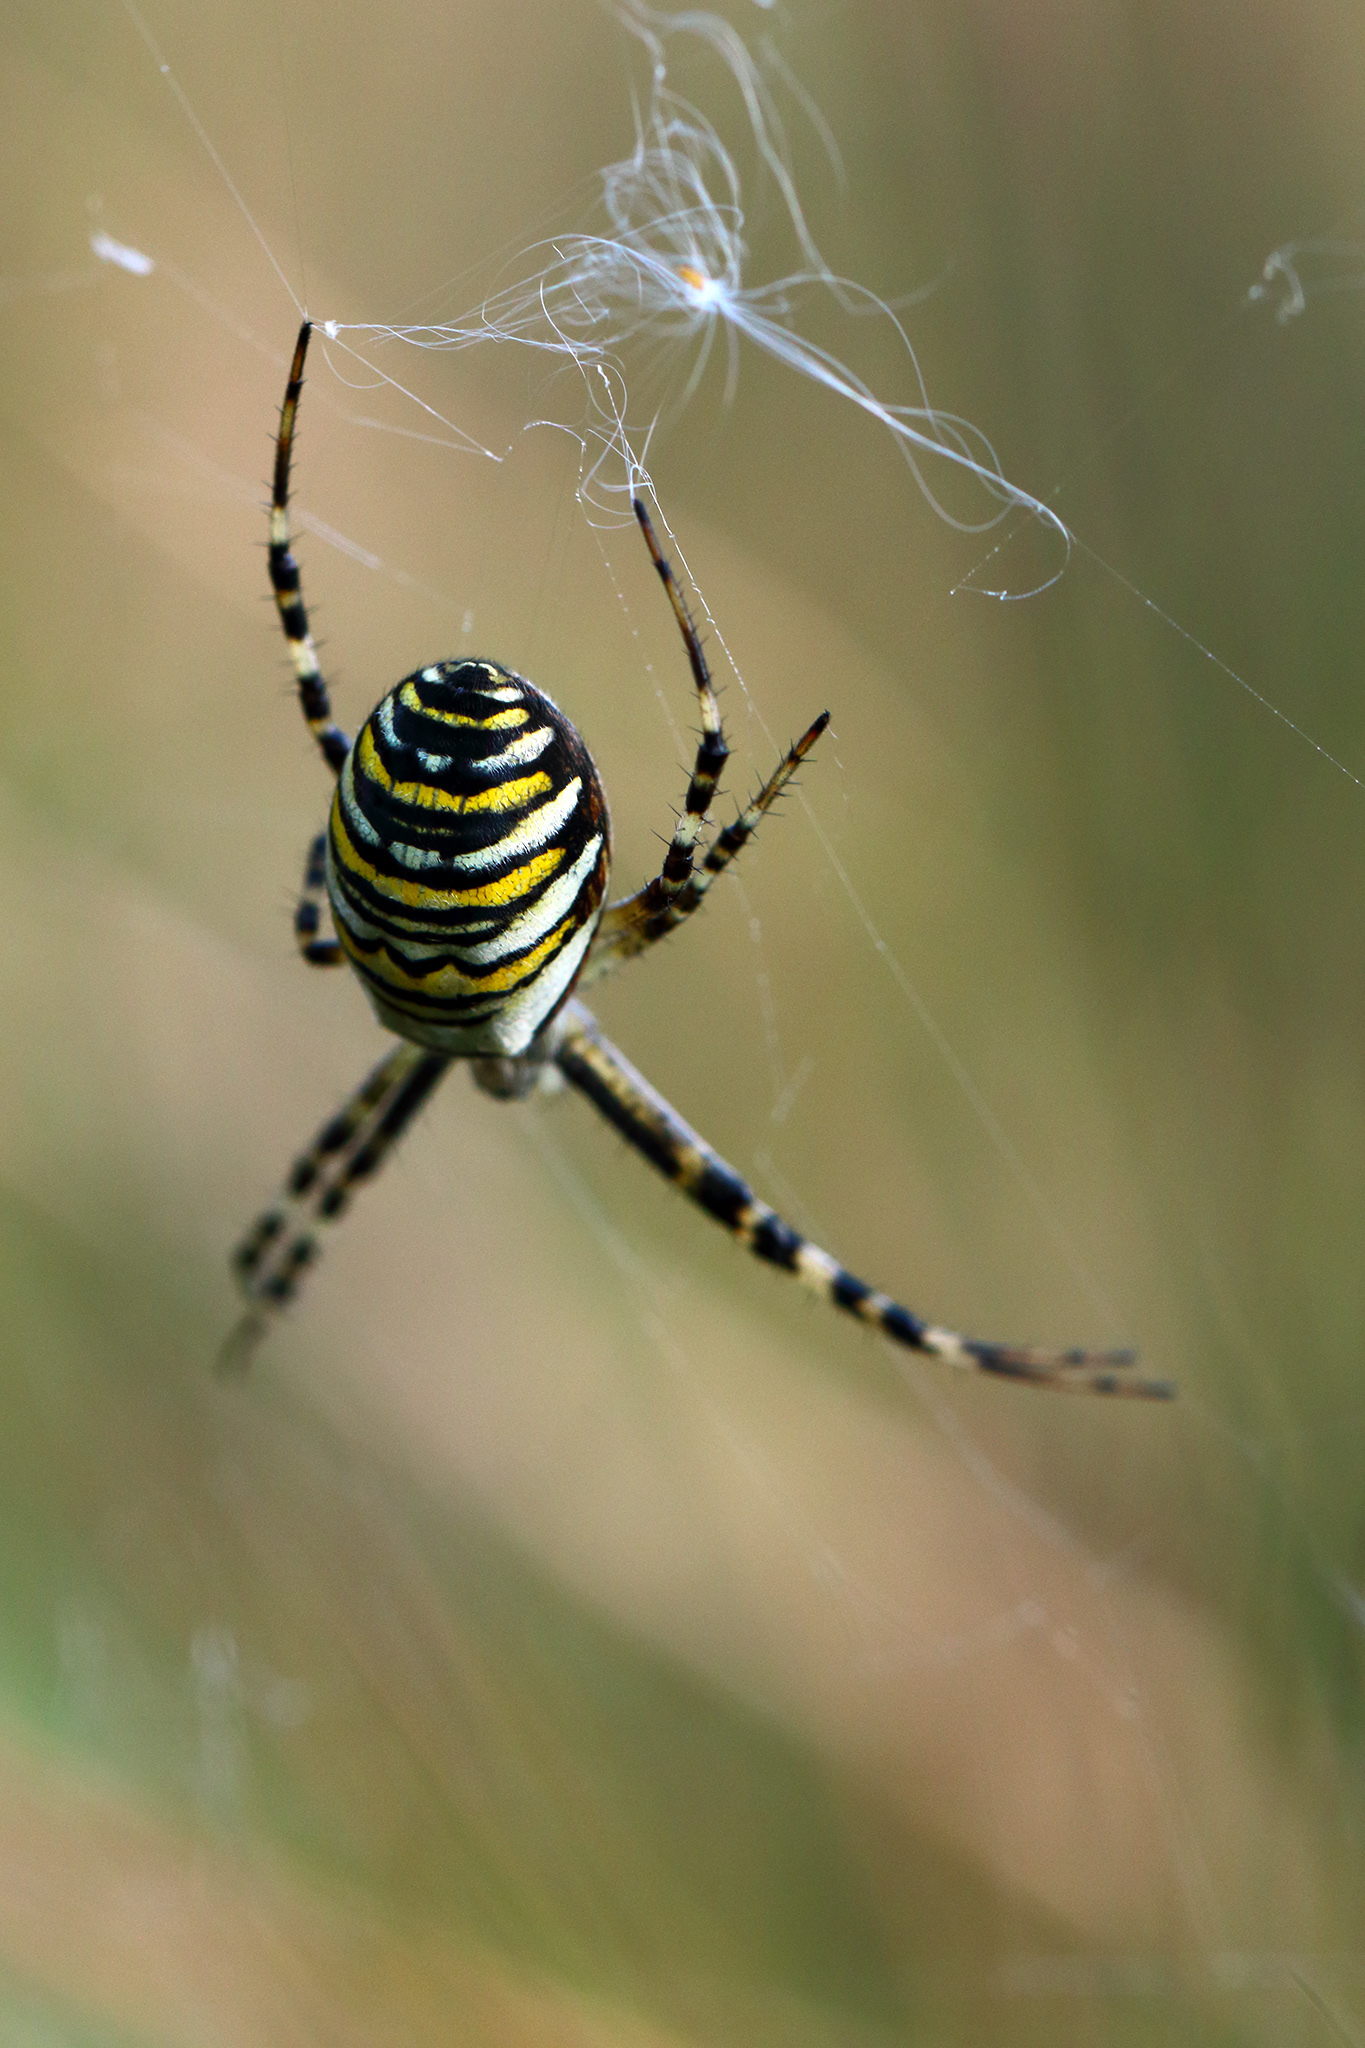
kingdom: Animalia
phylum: Arthropoda
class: Arachnida
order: Araneae
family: Araneidae
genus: Argiope
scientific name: Argiope bruennichi
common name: Wasp spider
